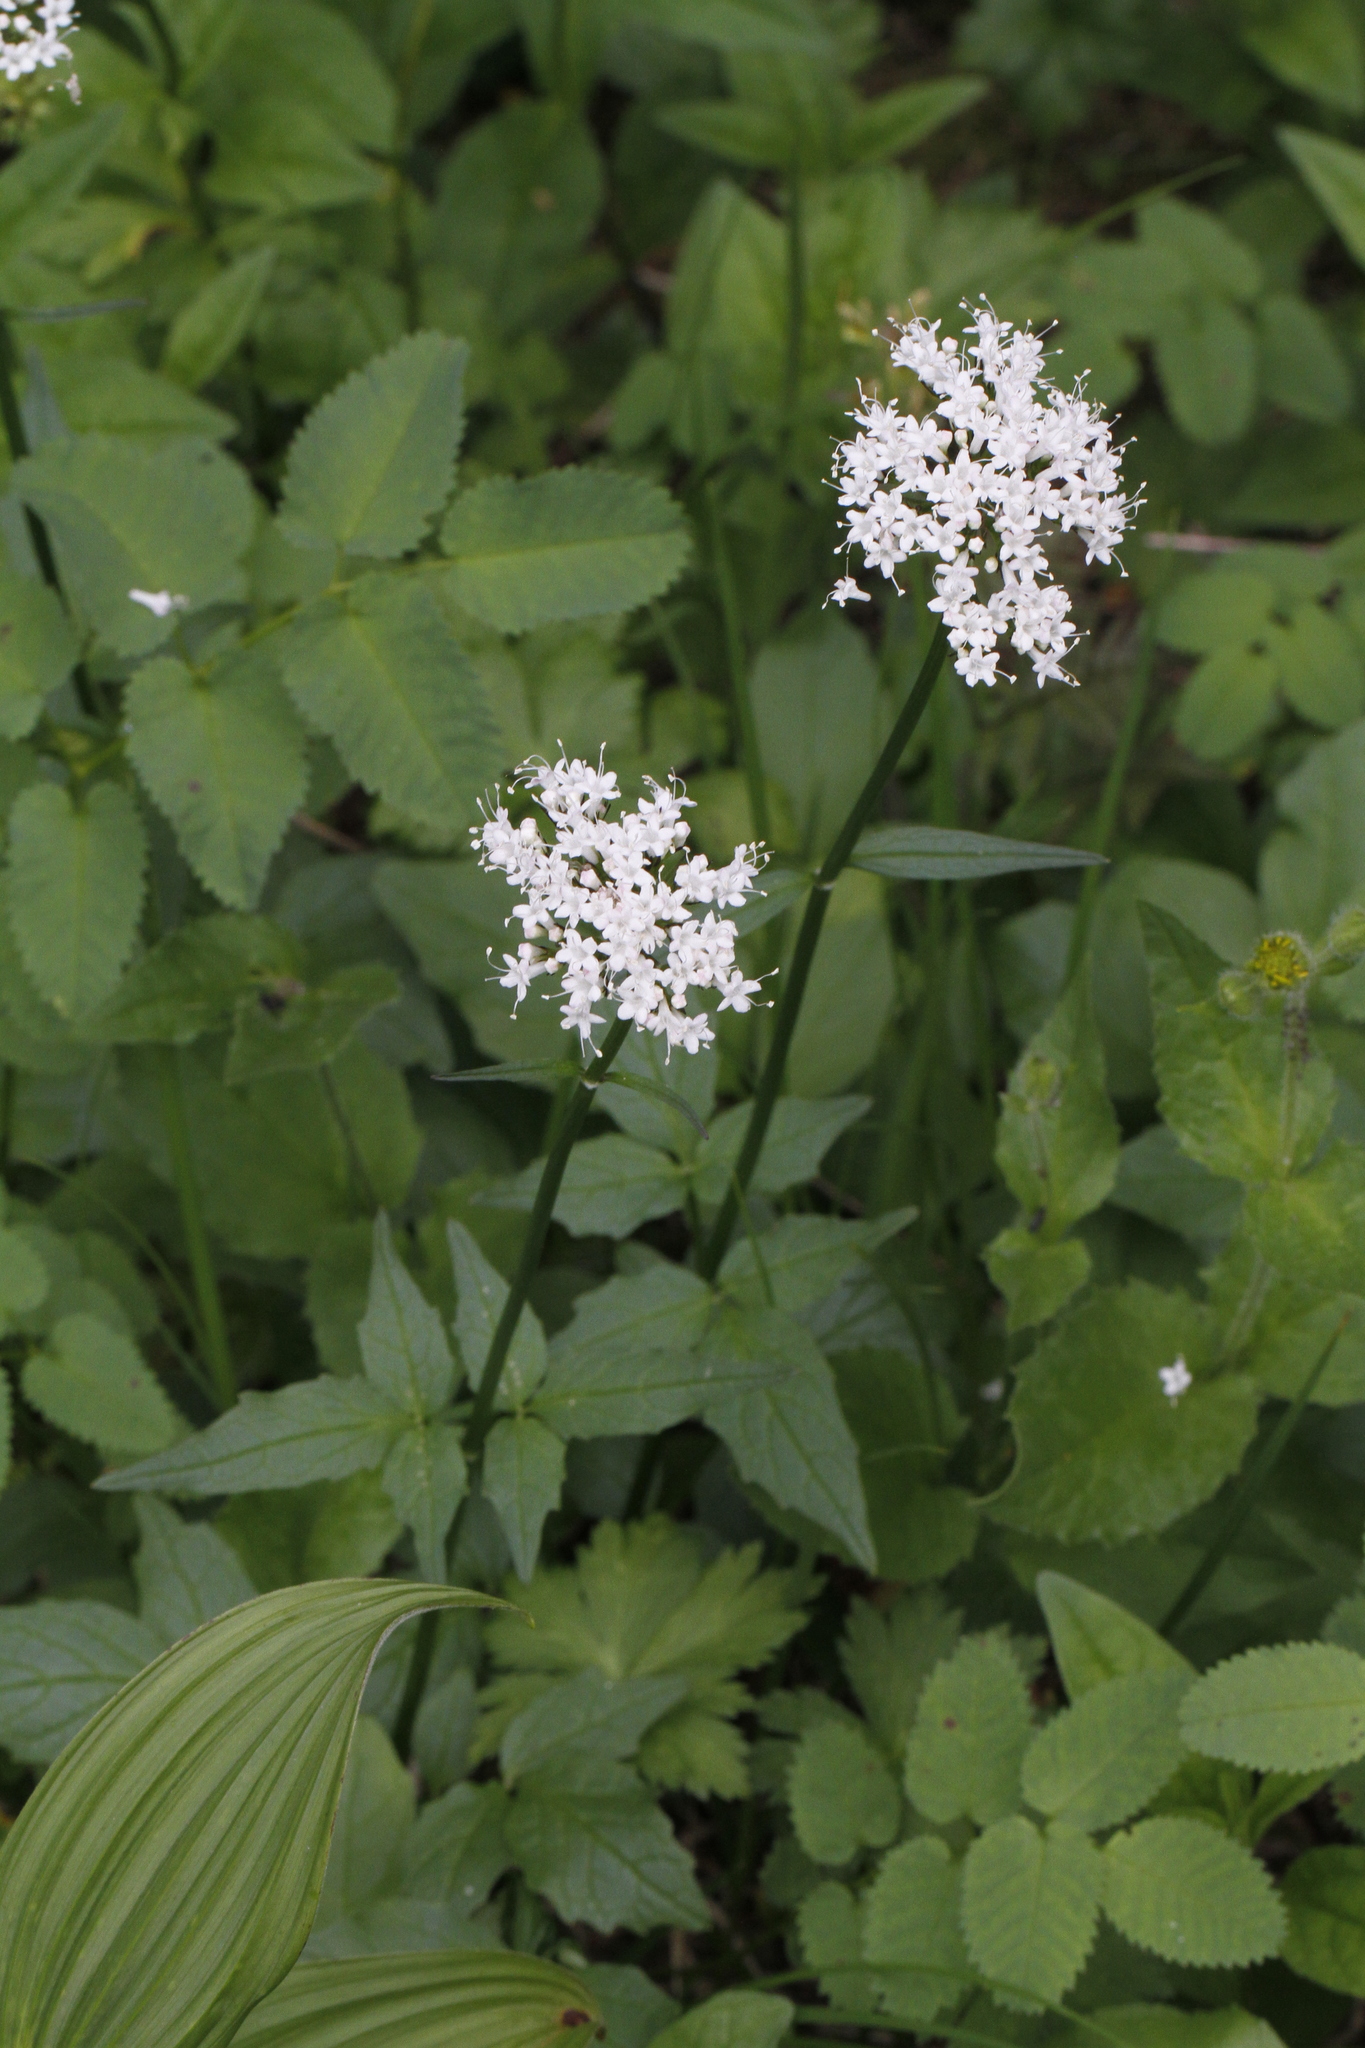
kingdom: Plantae
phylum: Tracheophyta
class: Magnoliopsida
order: Dipsacales
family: Caprifoliaceae
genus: Valeriana
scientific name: Valeriana sitchensis
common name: Pacific valerian
